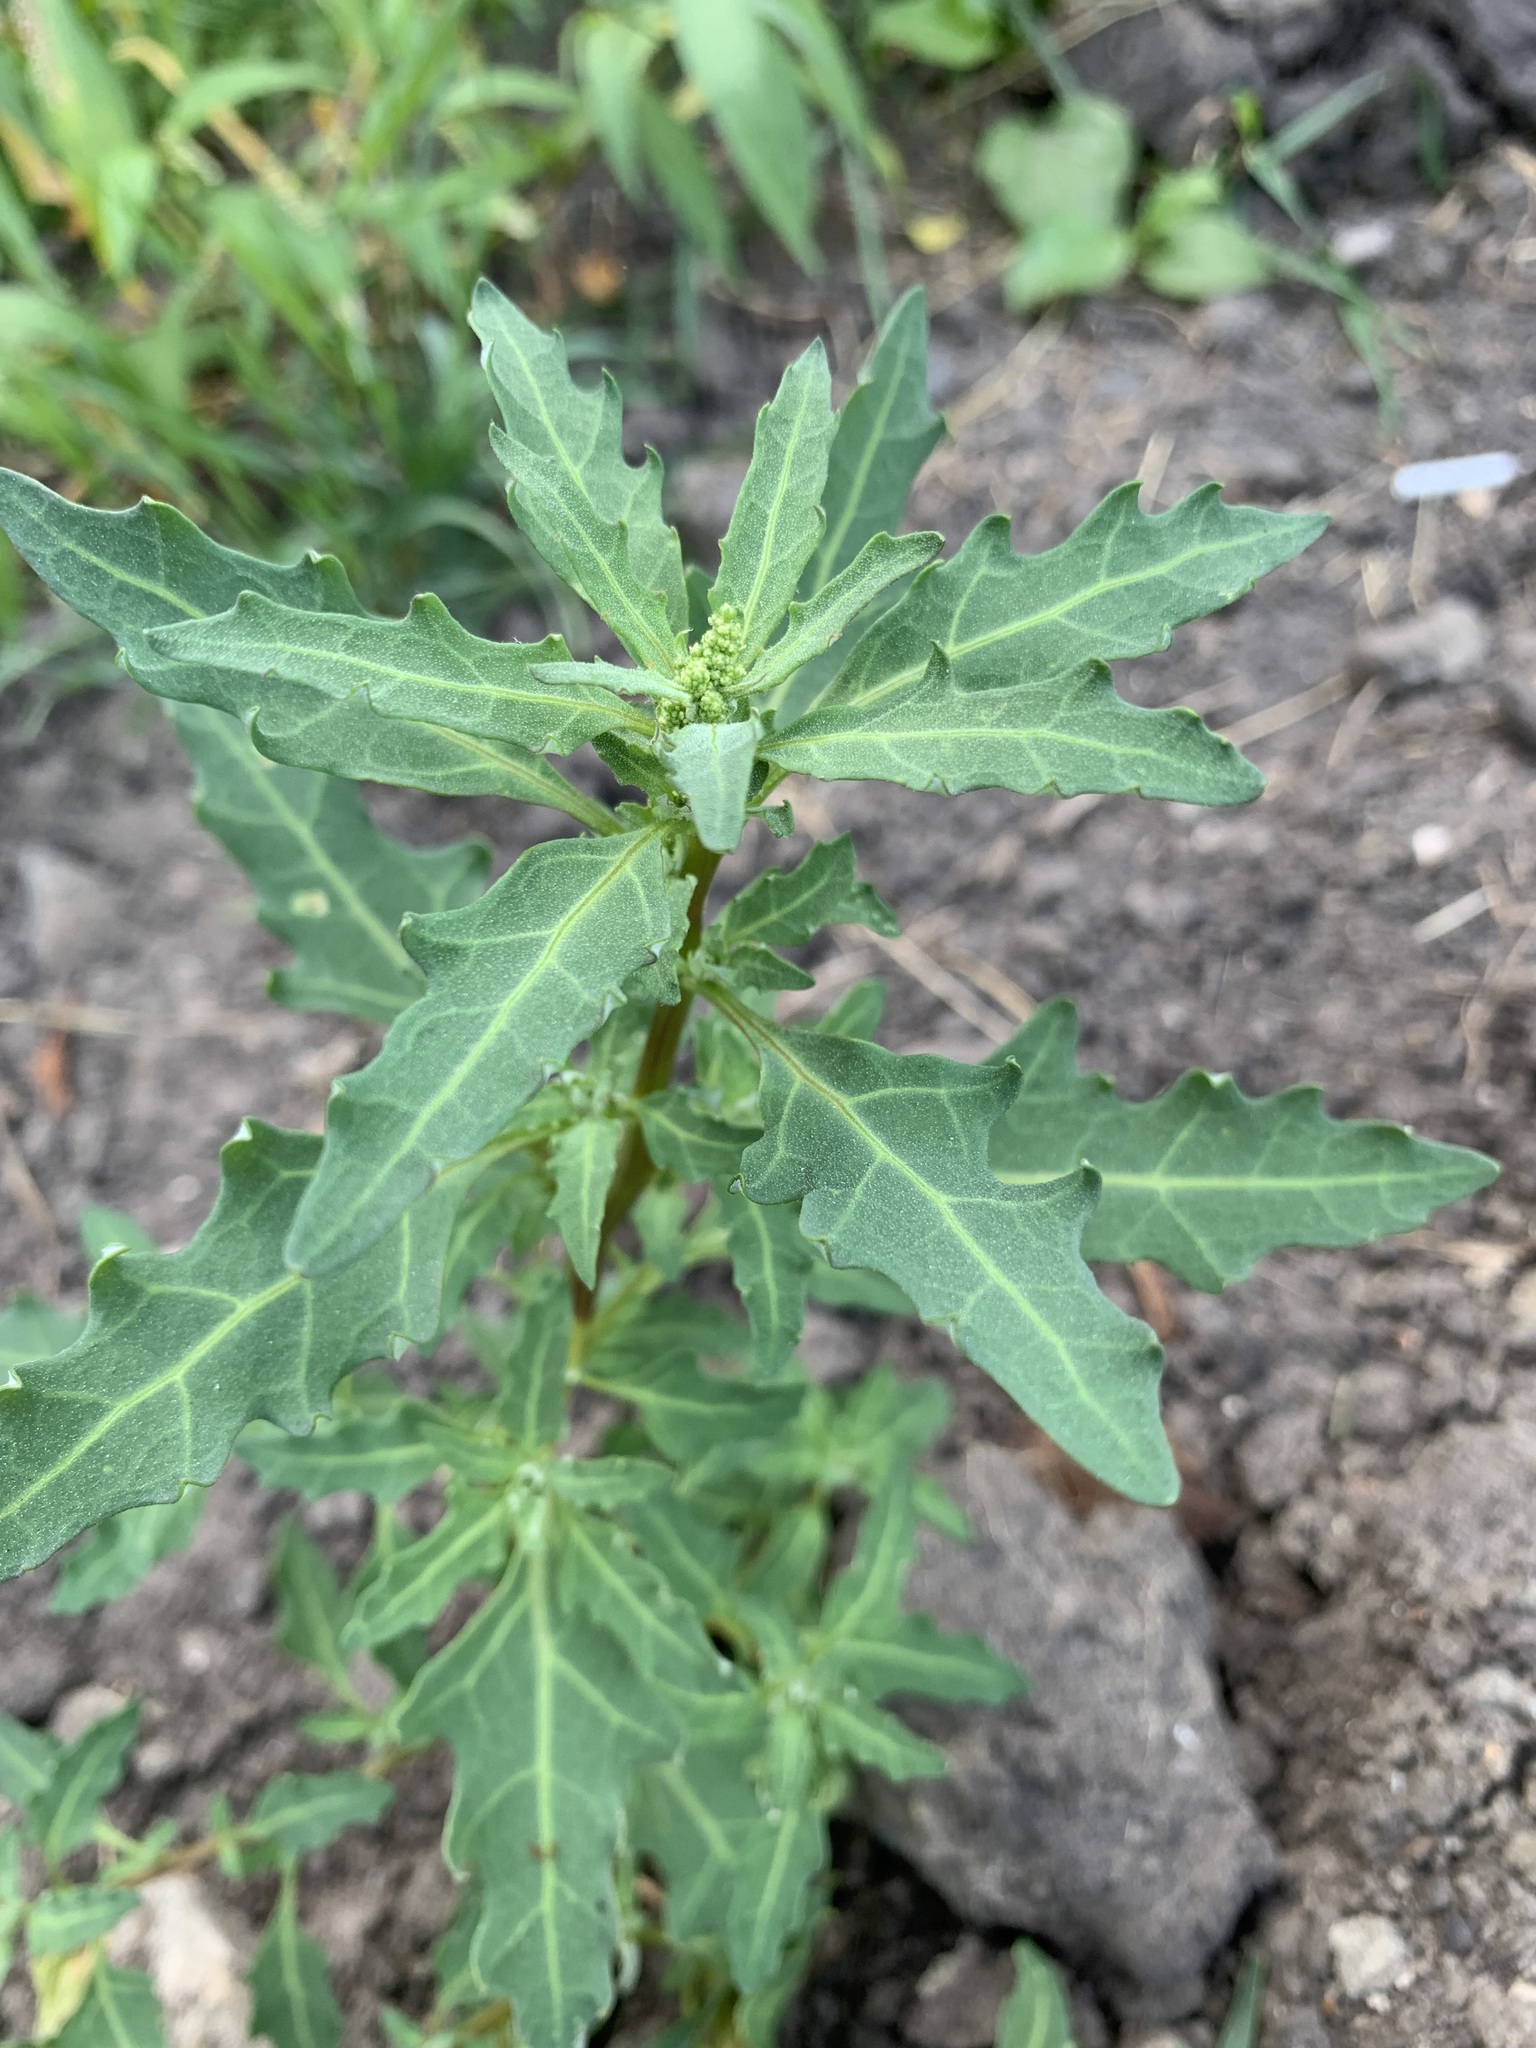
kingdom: Plantae
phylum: Tracheophyta
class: Magnoliopsida
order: Caryophyllales
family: Amaranthaceae
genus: Oxybasis
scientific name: Oxybasis glauca
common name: Glaucous goosefoot
